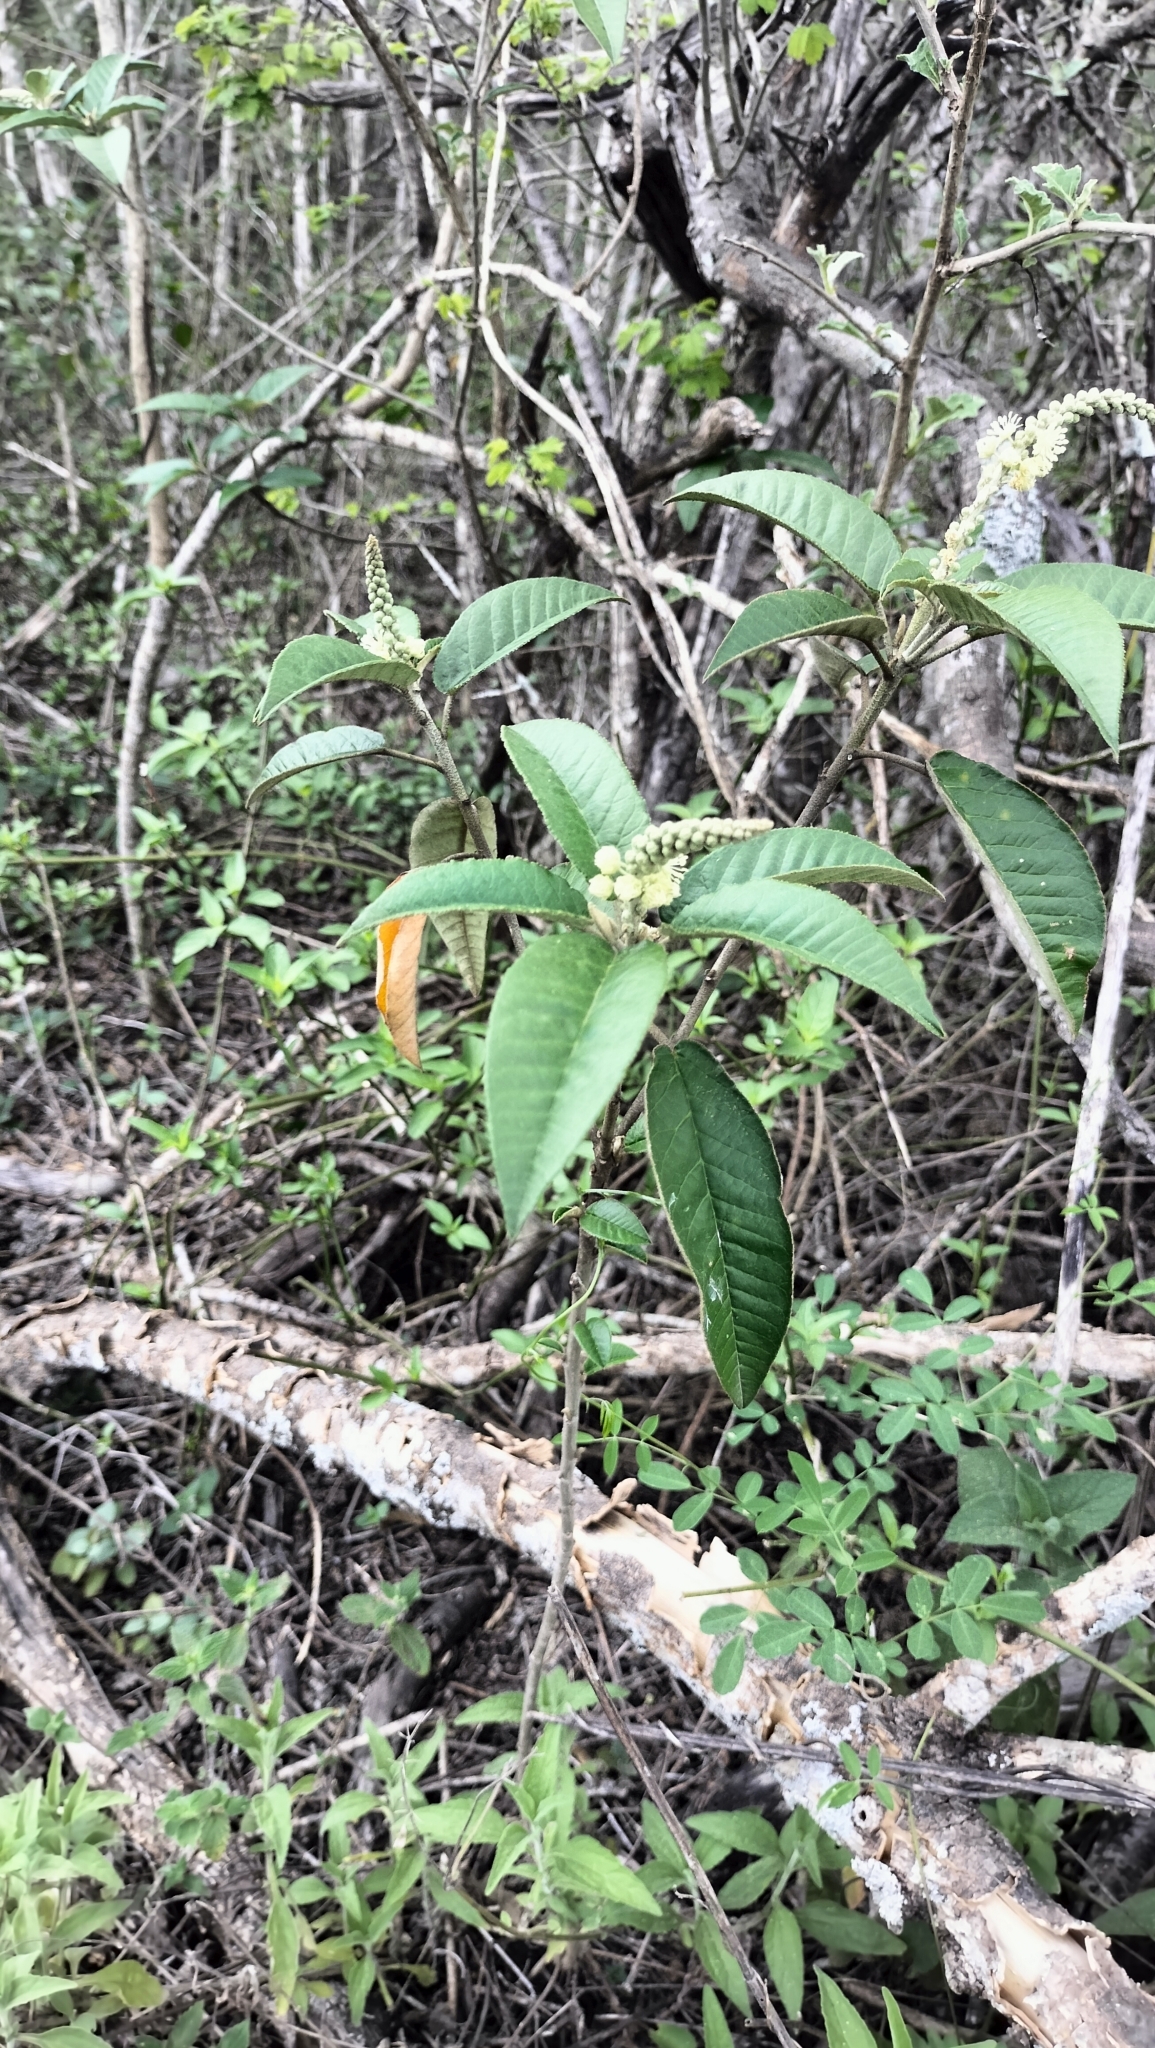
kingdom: Plantae
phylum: Tracheophyta
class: Magnoliopsida
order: Malpighiales
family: Euphorbiaceae
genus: Croton
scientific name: Croton cortesianus
